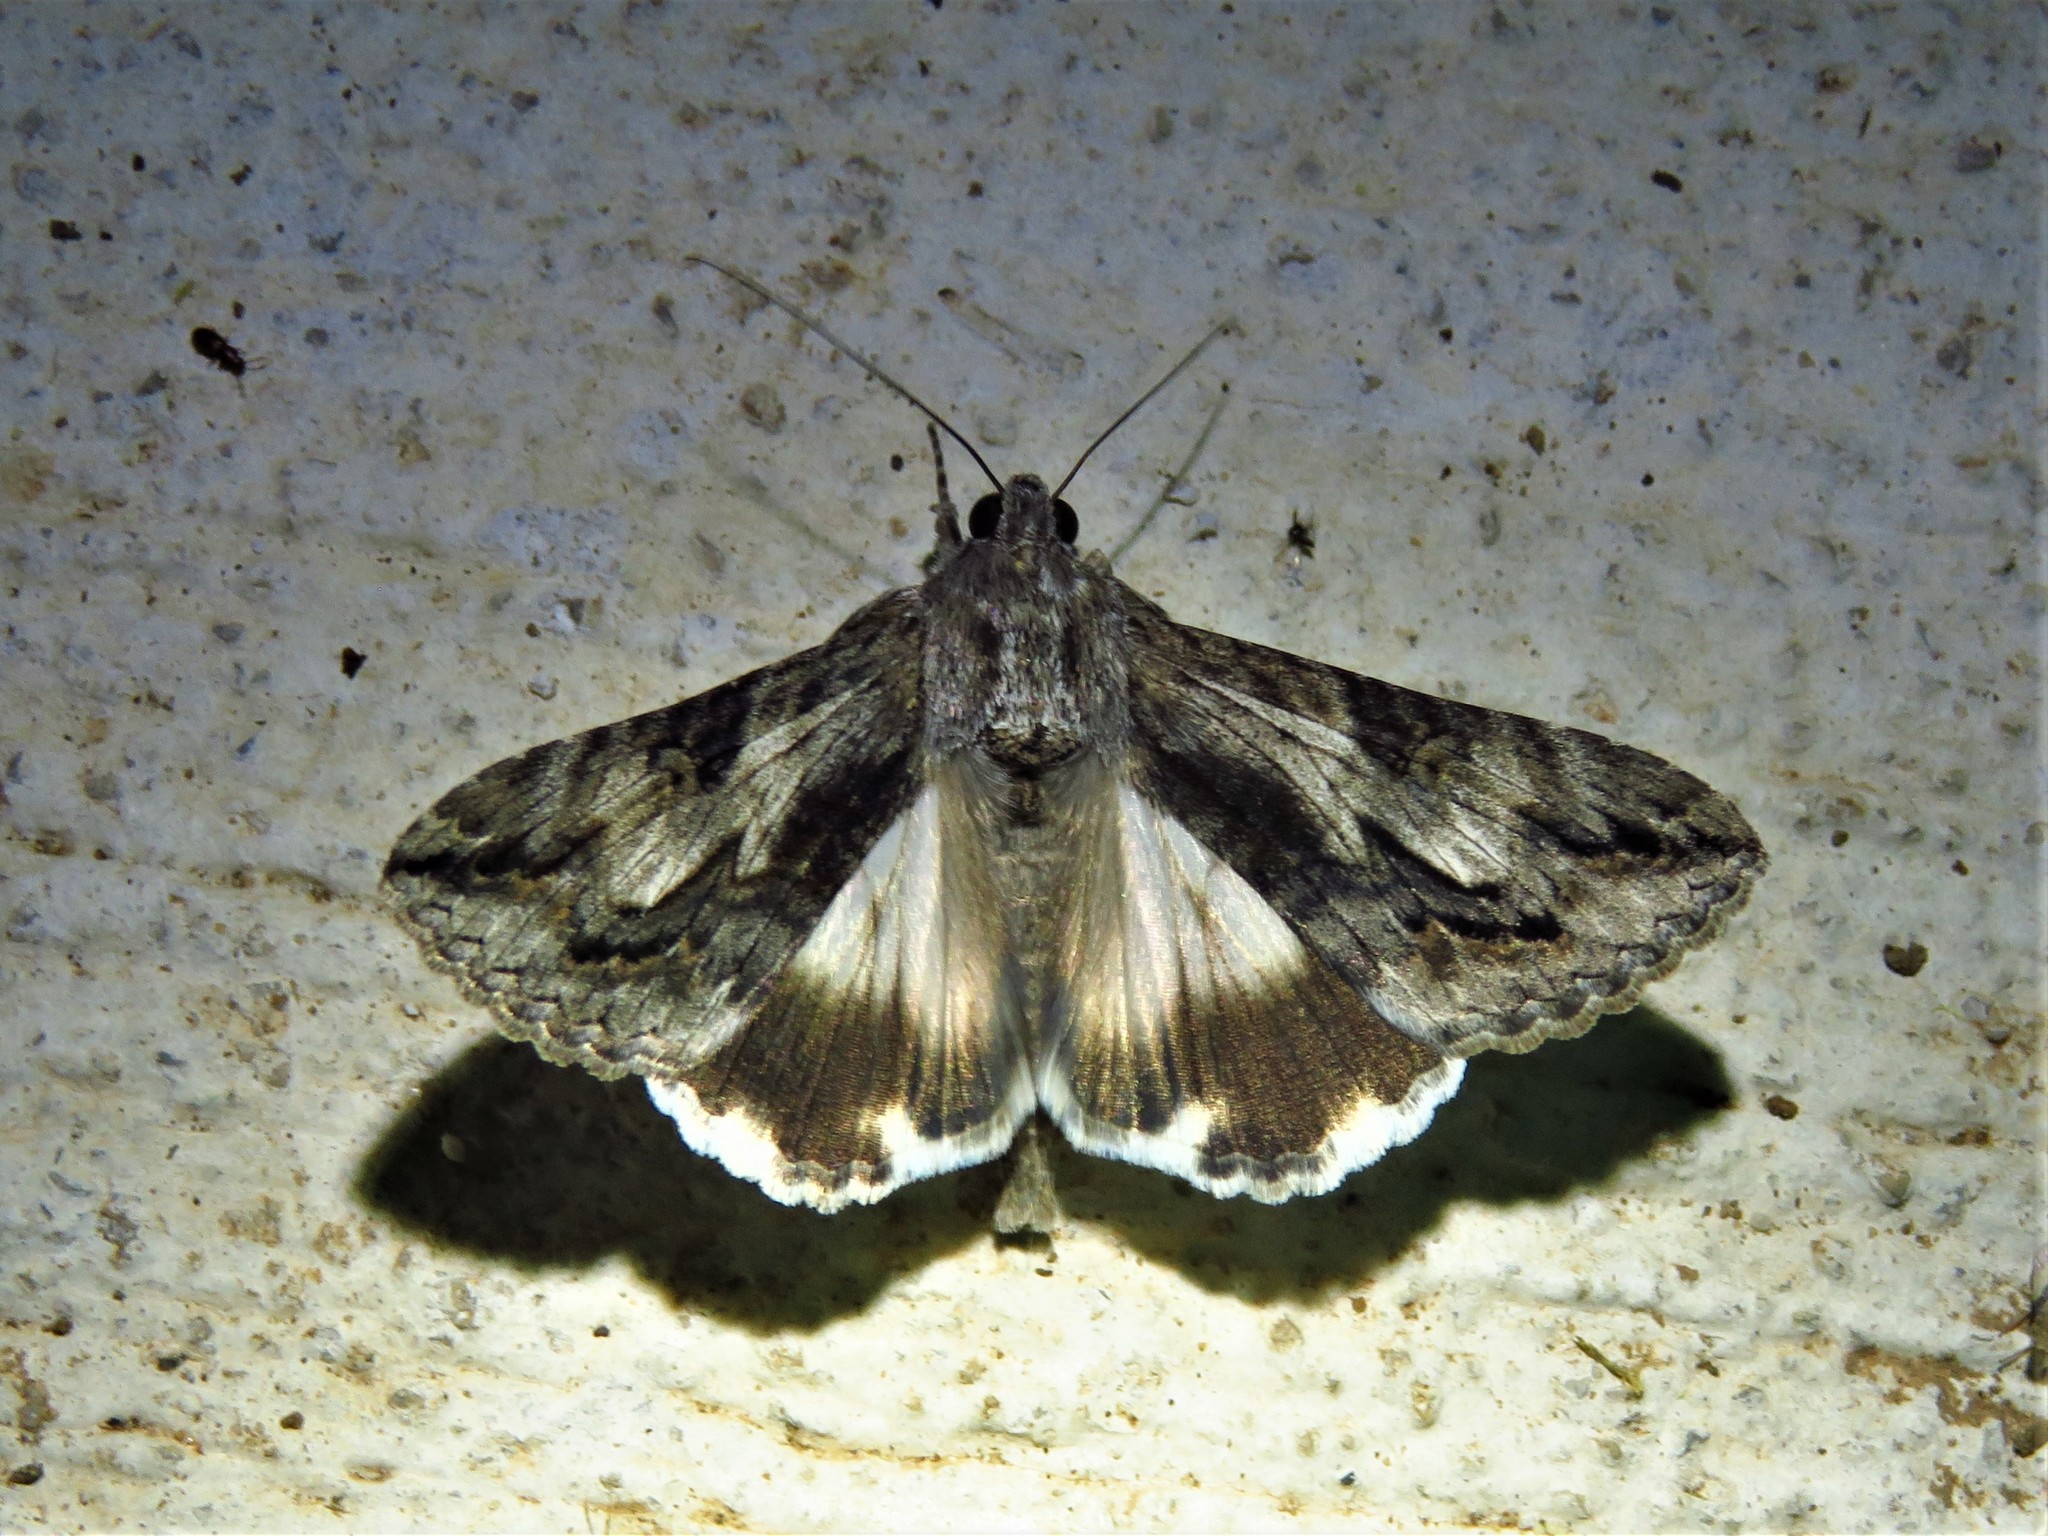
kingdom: Animalia
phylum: Arthropoda
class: Insecta
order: Lepidoptera
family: Erebidae
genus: Melipotis
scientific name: Melipotis jucunda
